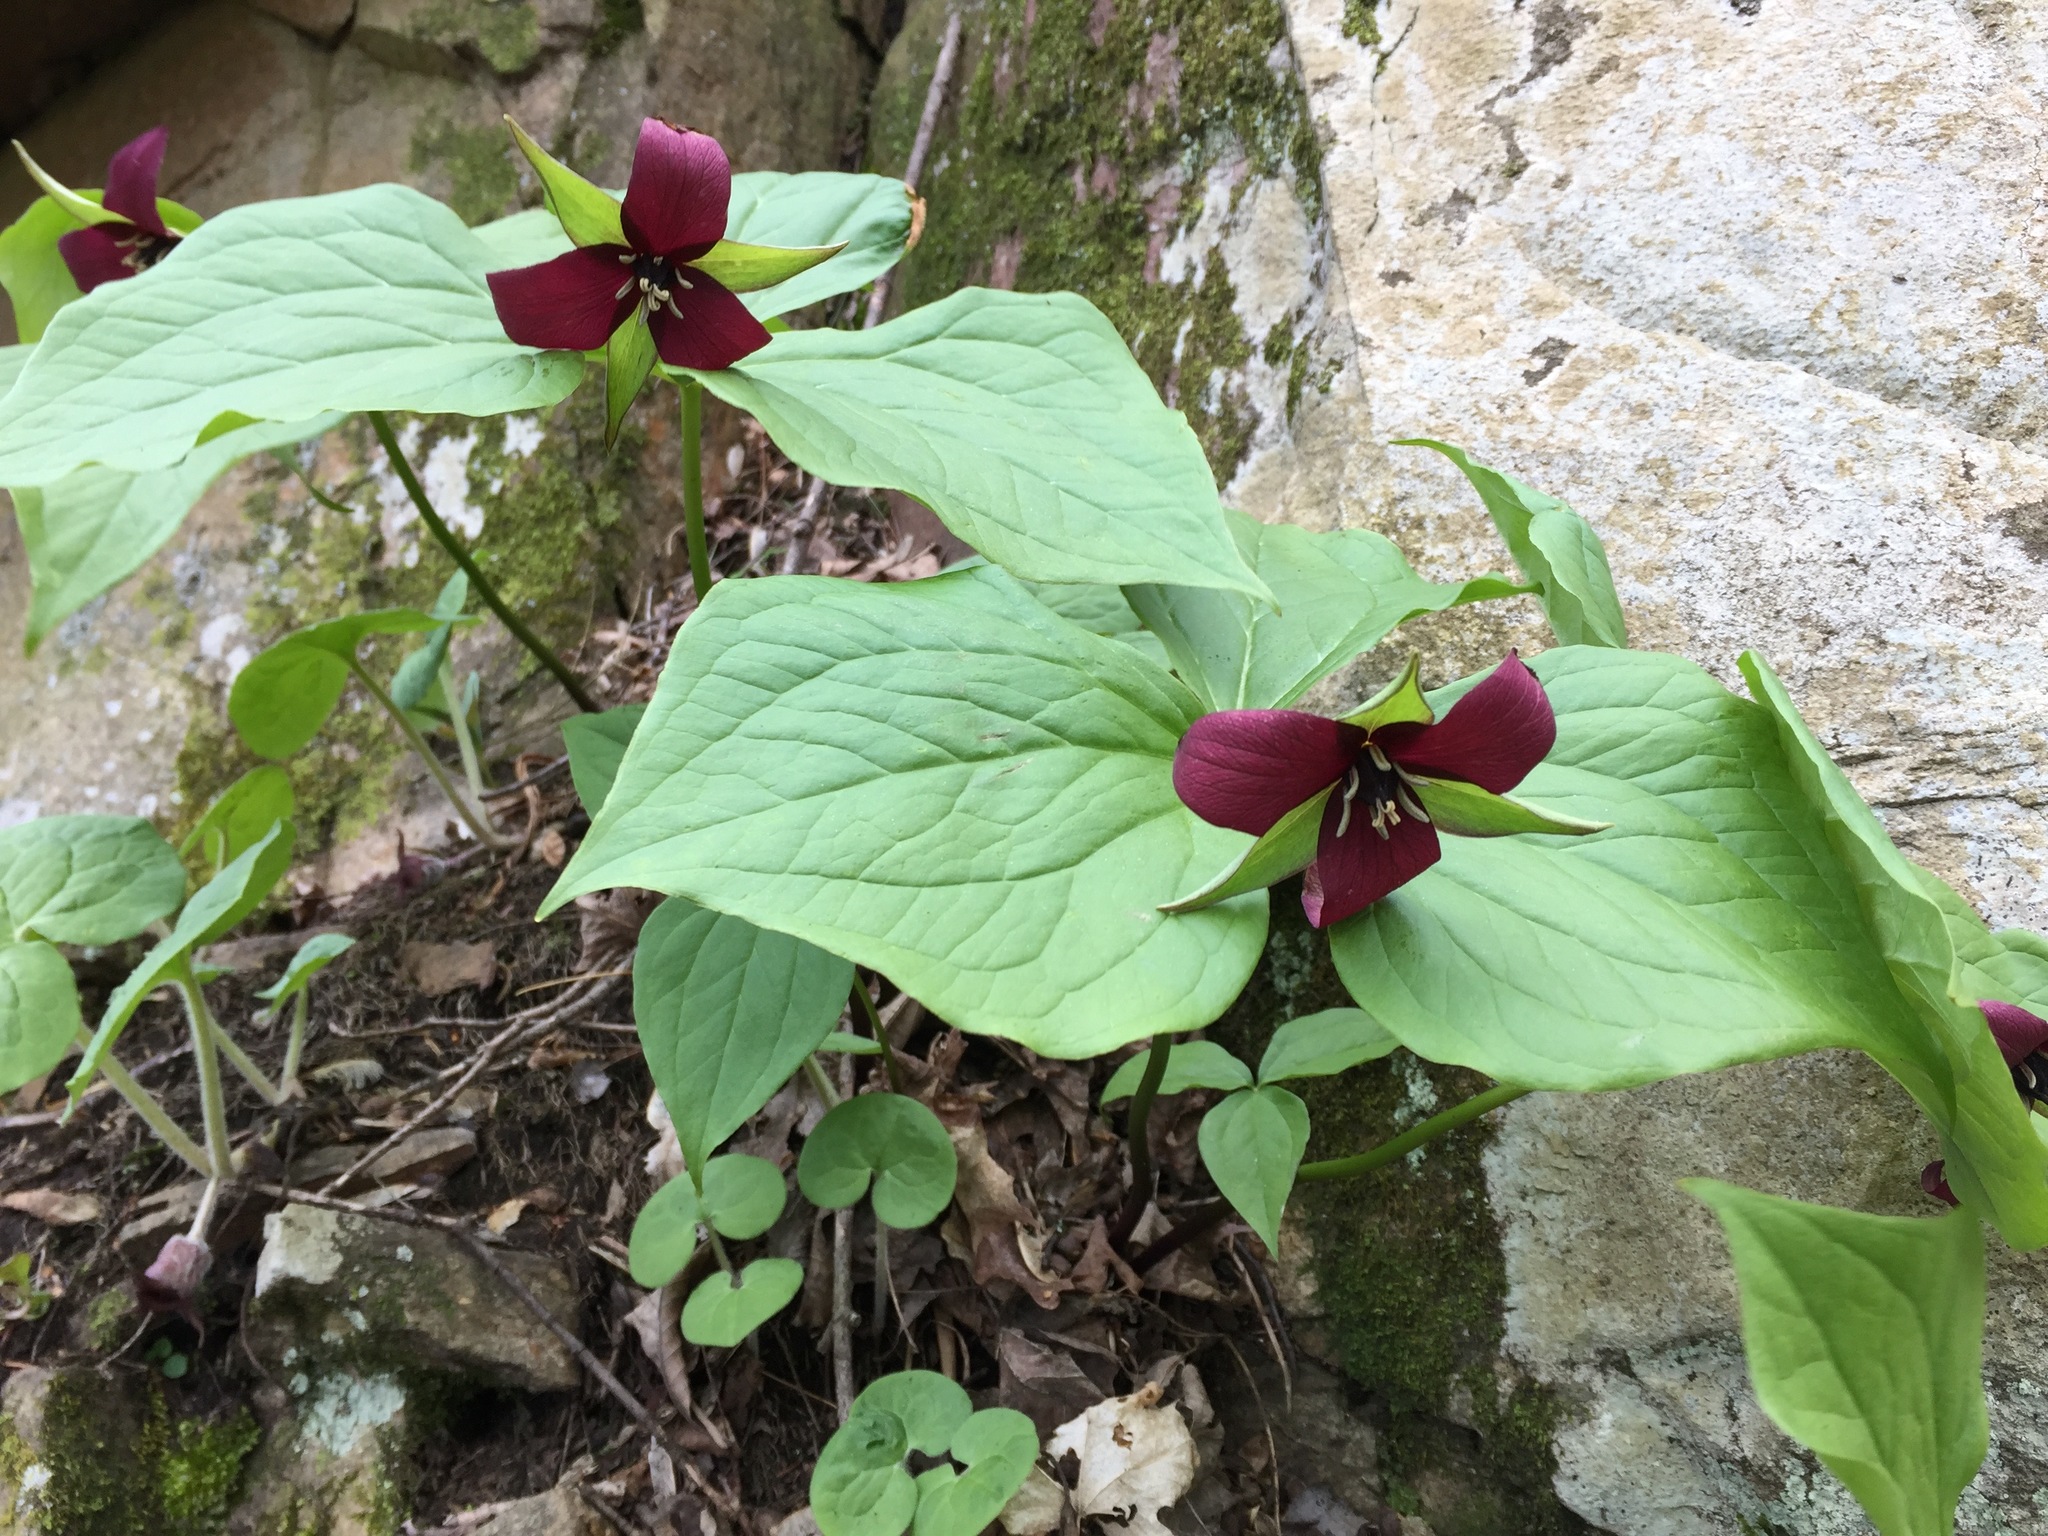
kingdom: Plantae
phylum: Tracheophyta
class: Liliopsida
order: Liliales
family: Melanthiaceae
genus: Trillium
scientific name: Trillium erectum
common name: Purple trillium
